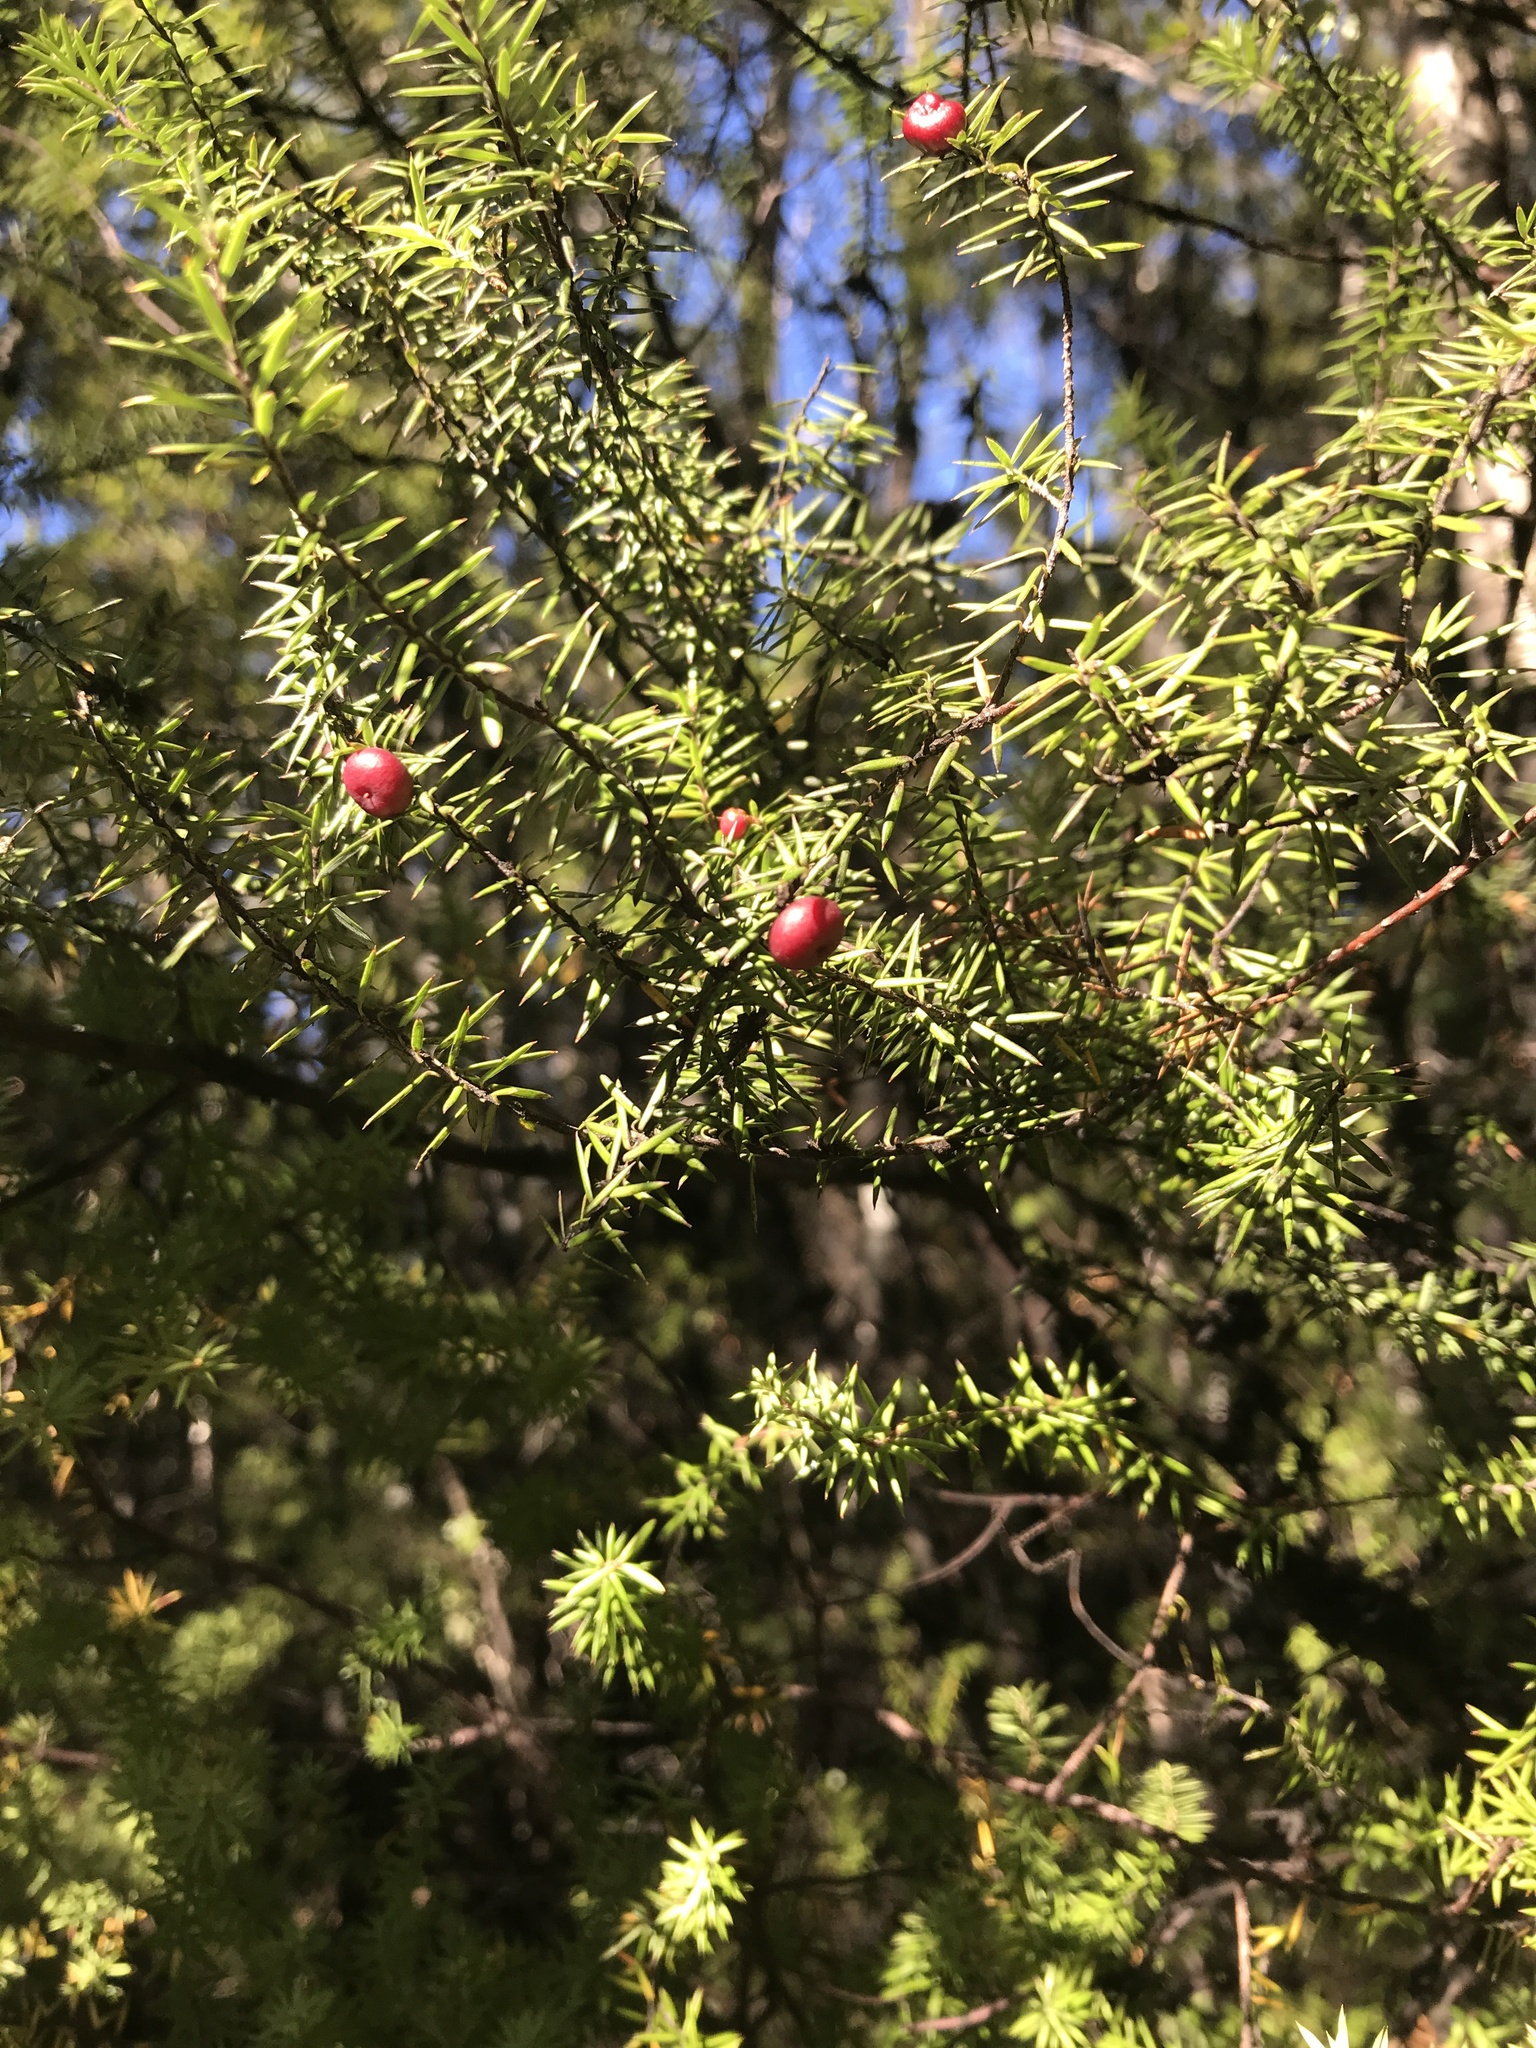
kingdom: Plantae
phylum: Tracheophyta
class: Magnoliopsida
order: Ericales
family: Ericaceae
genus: Leptecophylla
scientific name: Leptecophylla juniperina
